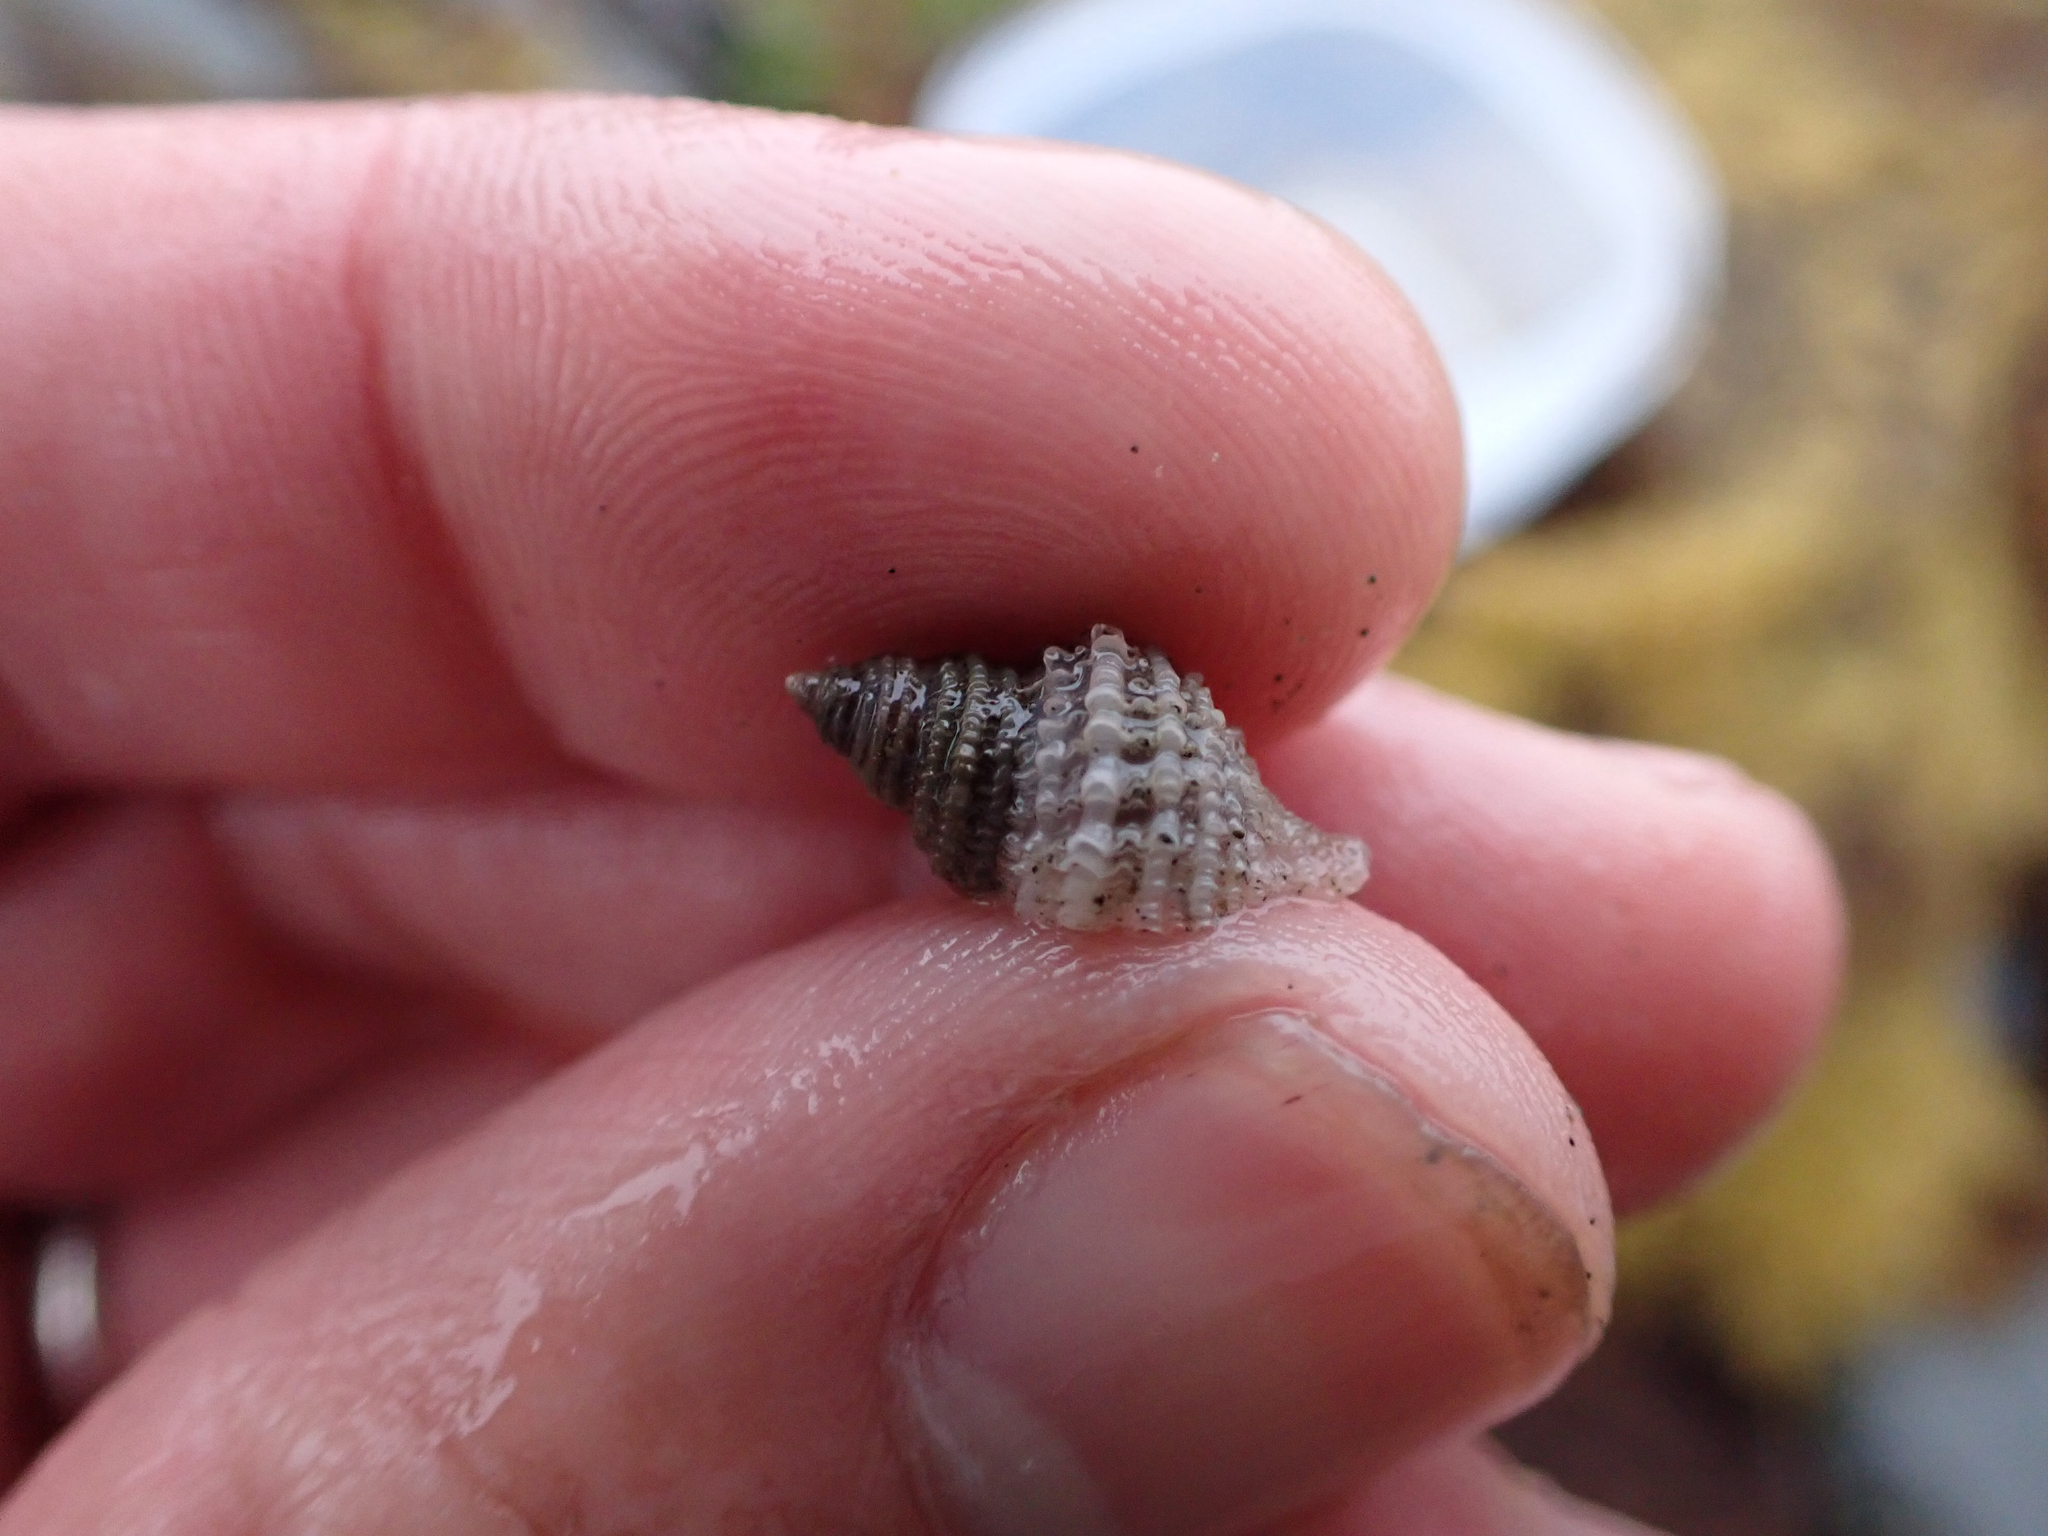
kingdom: Animalia
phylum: Mollusca
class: Gastropoda
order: Neogastropoda
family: Muricidae
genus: Nucella
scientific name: Nucella lamellosa
